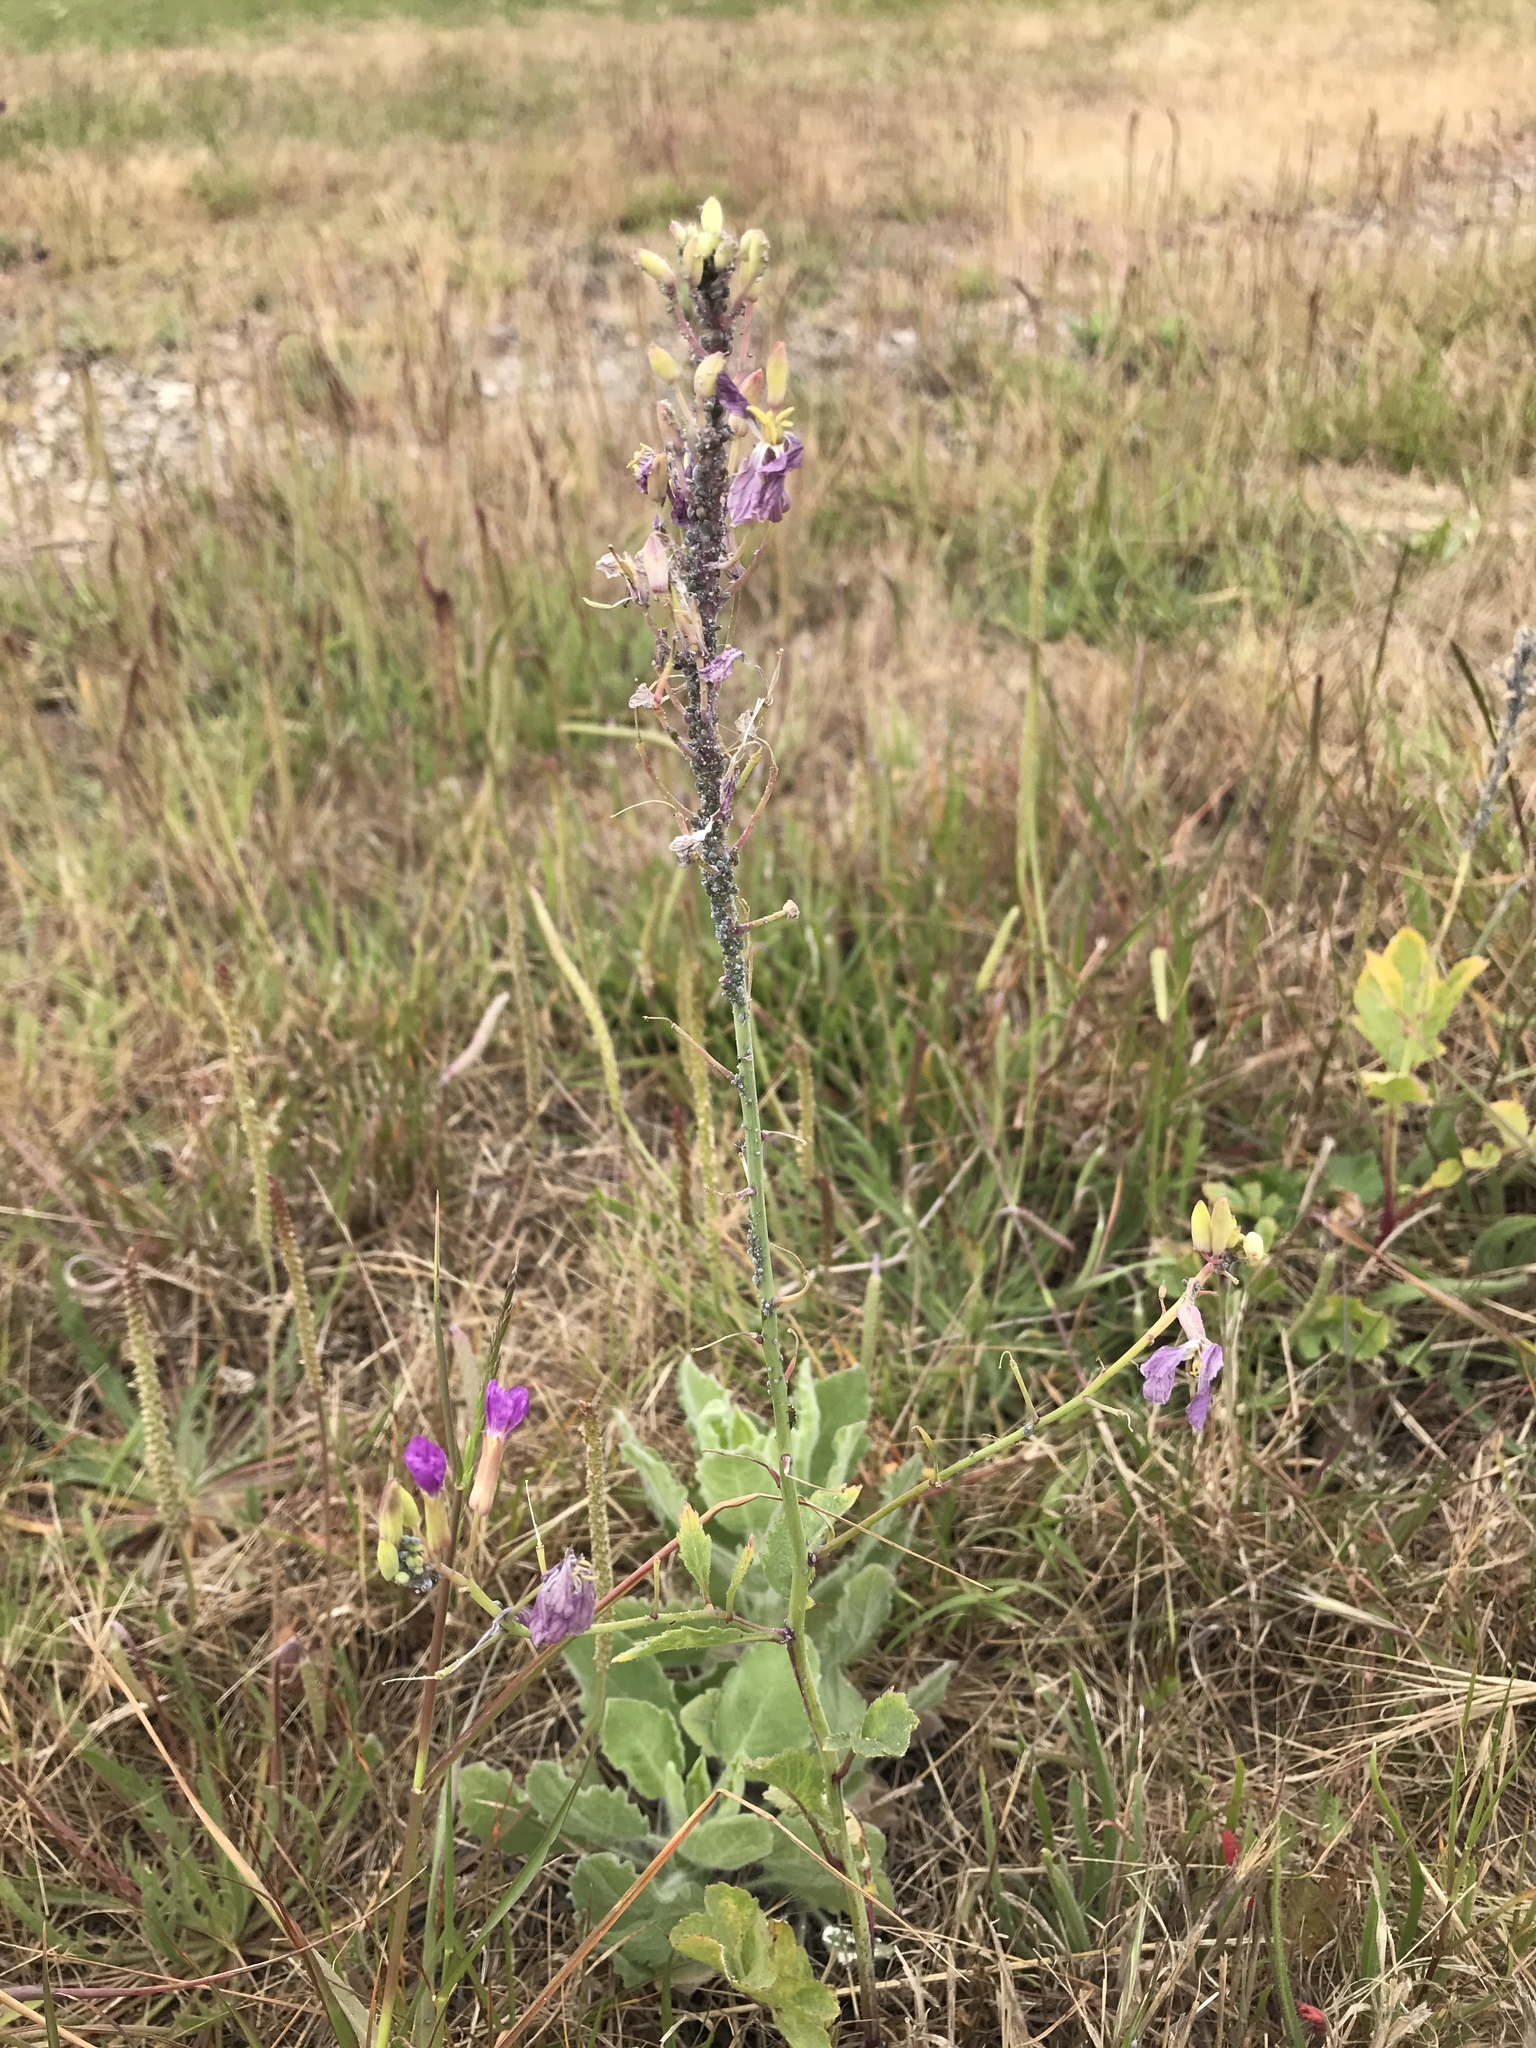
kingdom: Plantae
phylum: Tracheophyta
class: Magnoliopsida
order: Brassicales
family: Brassicaceae
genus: Raphanus
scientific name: Raphanus sativus
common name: Cultivated radish
